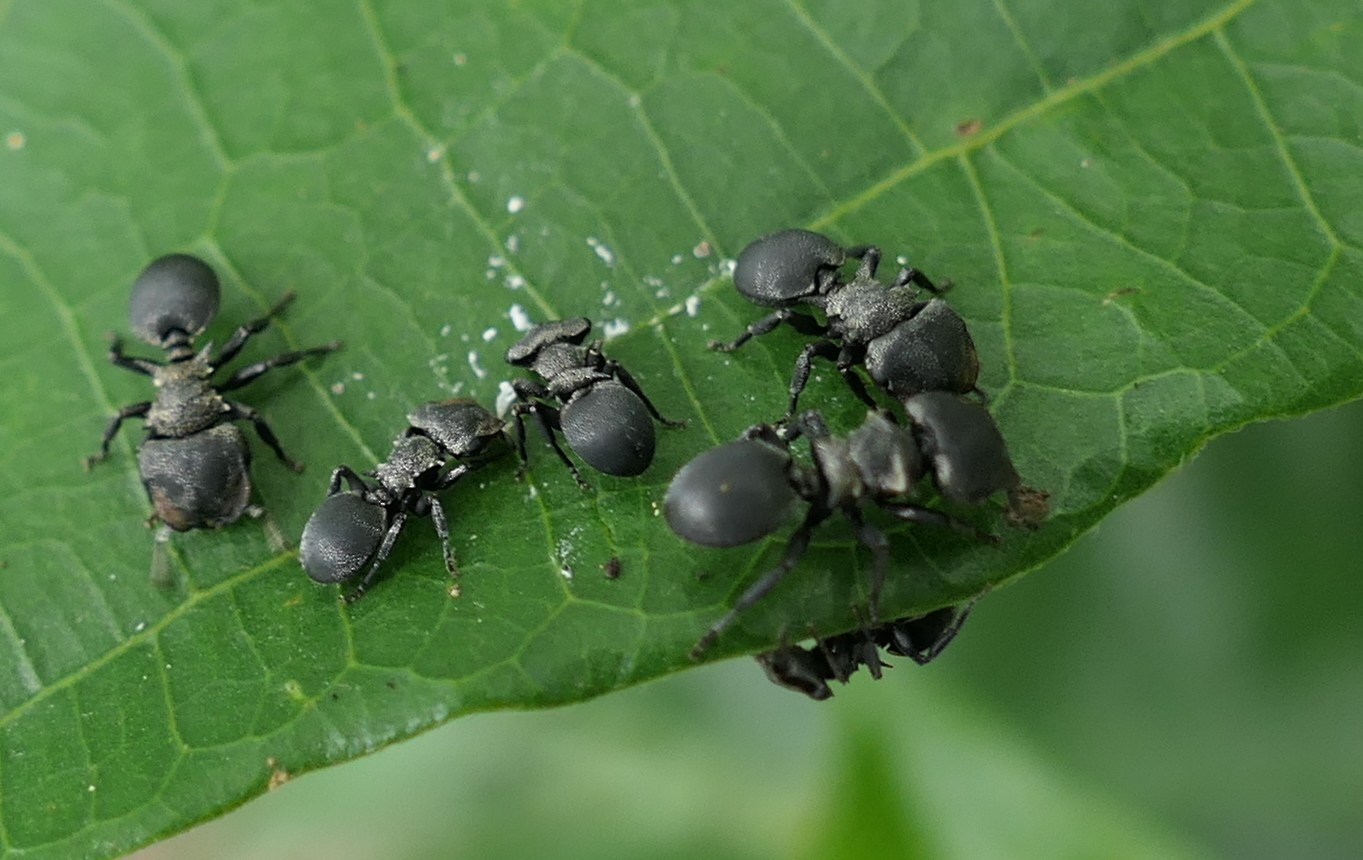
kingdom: Animalia
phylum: Arthropoda
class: Insecta
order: Hymenoptera
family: Formicidae
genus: Cephalotes
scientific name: Cephalotes pusillus
